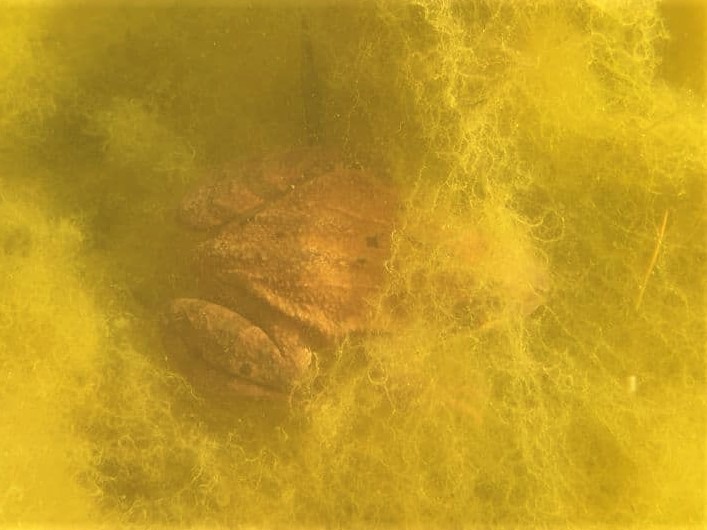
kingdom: Animalia
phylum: Chordata
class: Amphibia
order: Anura
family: Ranidae
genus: Rana
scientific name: Rana temporaria
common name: Common frog
